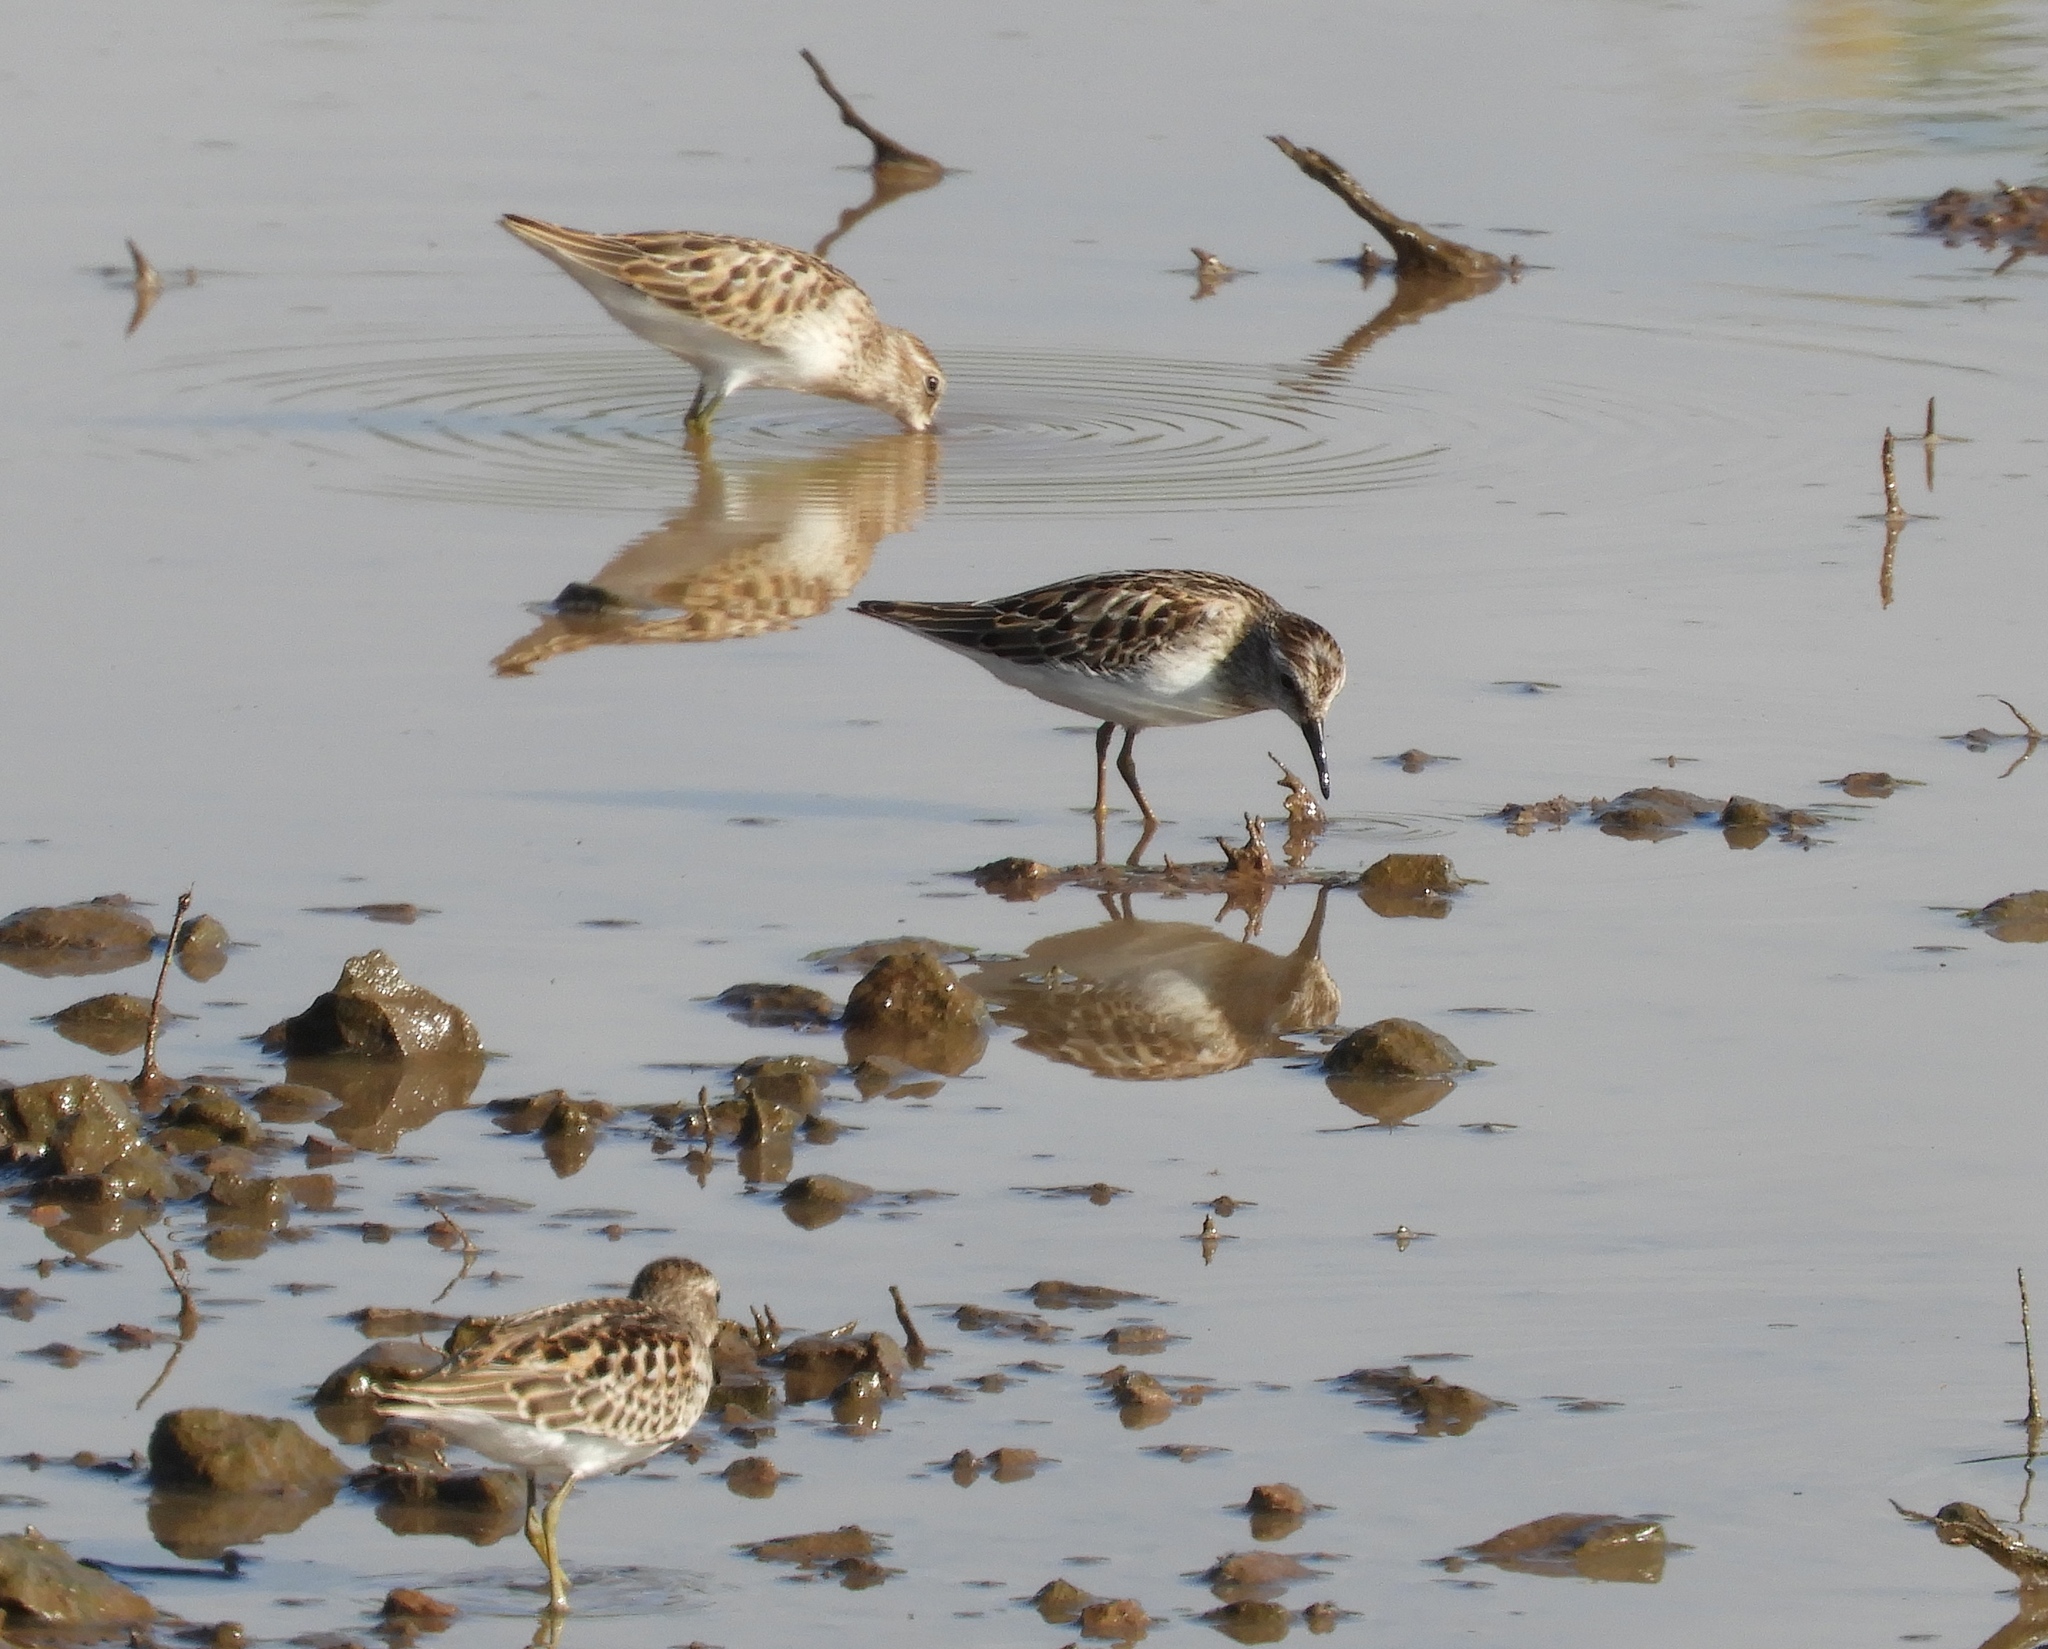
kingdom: Animalia
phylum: Chordata
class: Aves
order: Charadriiformes
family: Scolopacidae
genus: Calidris
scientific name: Calidris minutilla
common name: Least sandpiper
